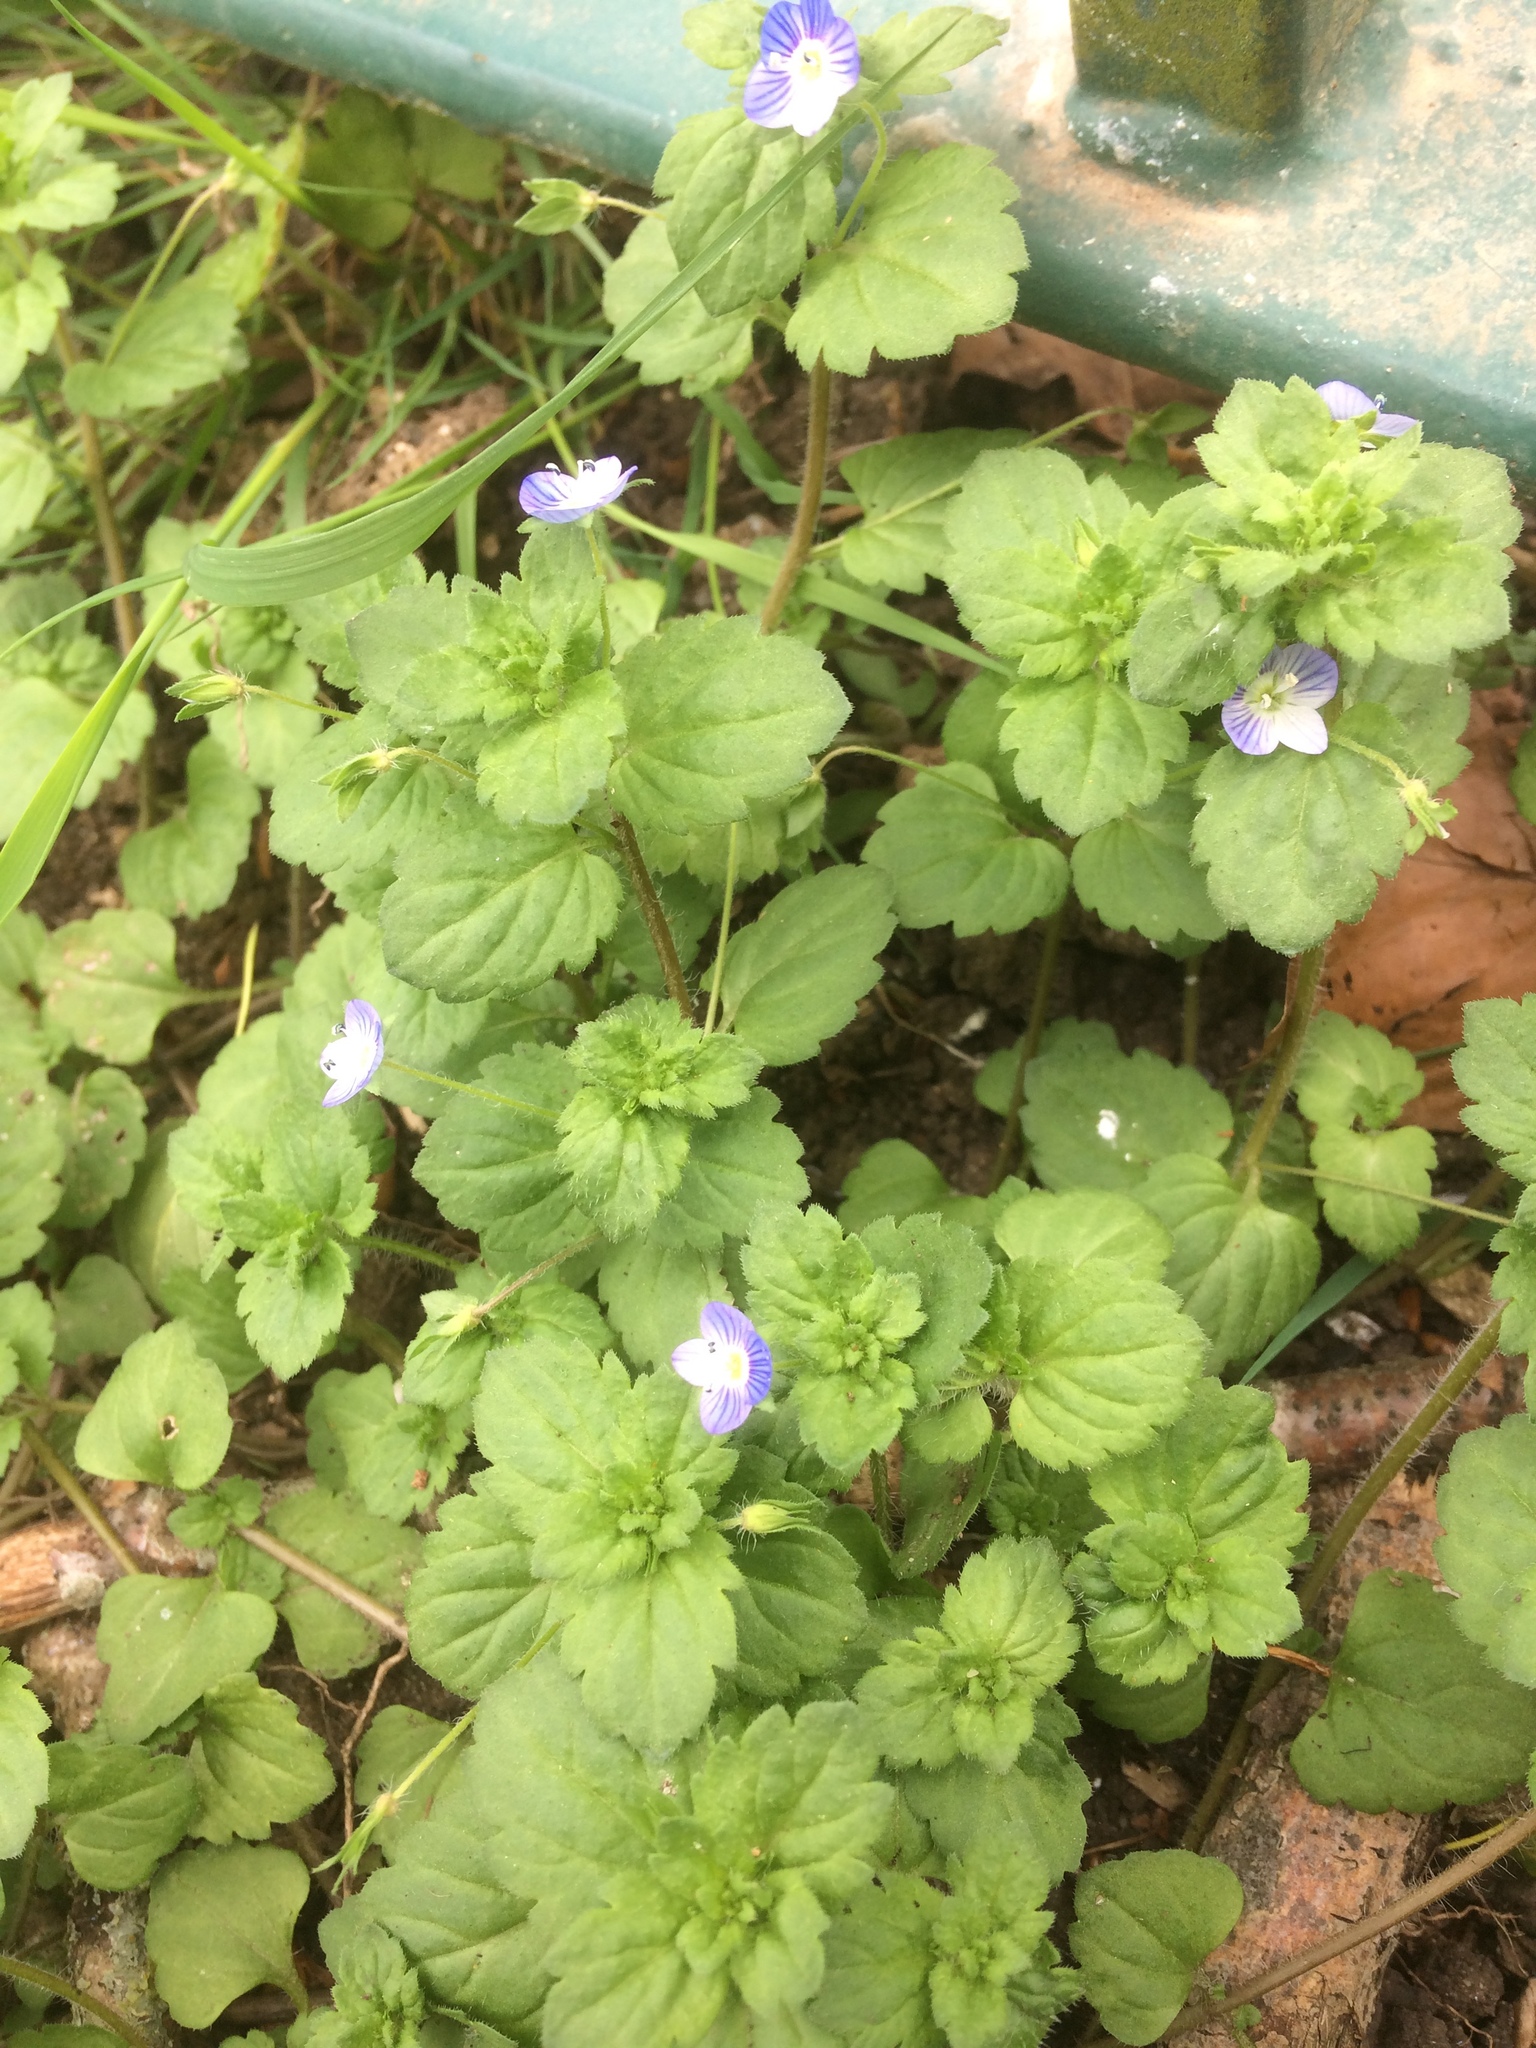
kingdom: Plantae
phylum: Tracheophyta
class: Magnoliopsida
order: Lamiales
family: Plantaginaceae
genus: Veronica
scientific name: Veronica persica
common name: Common field-speedwell
